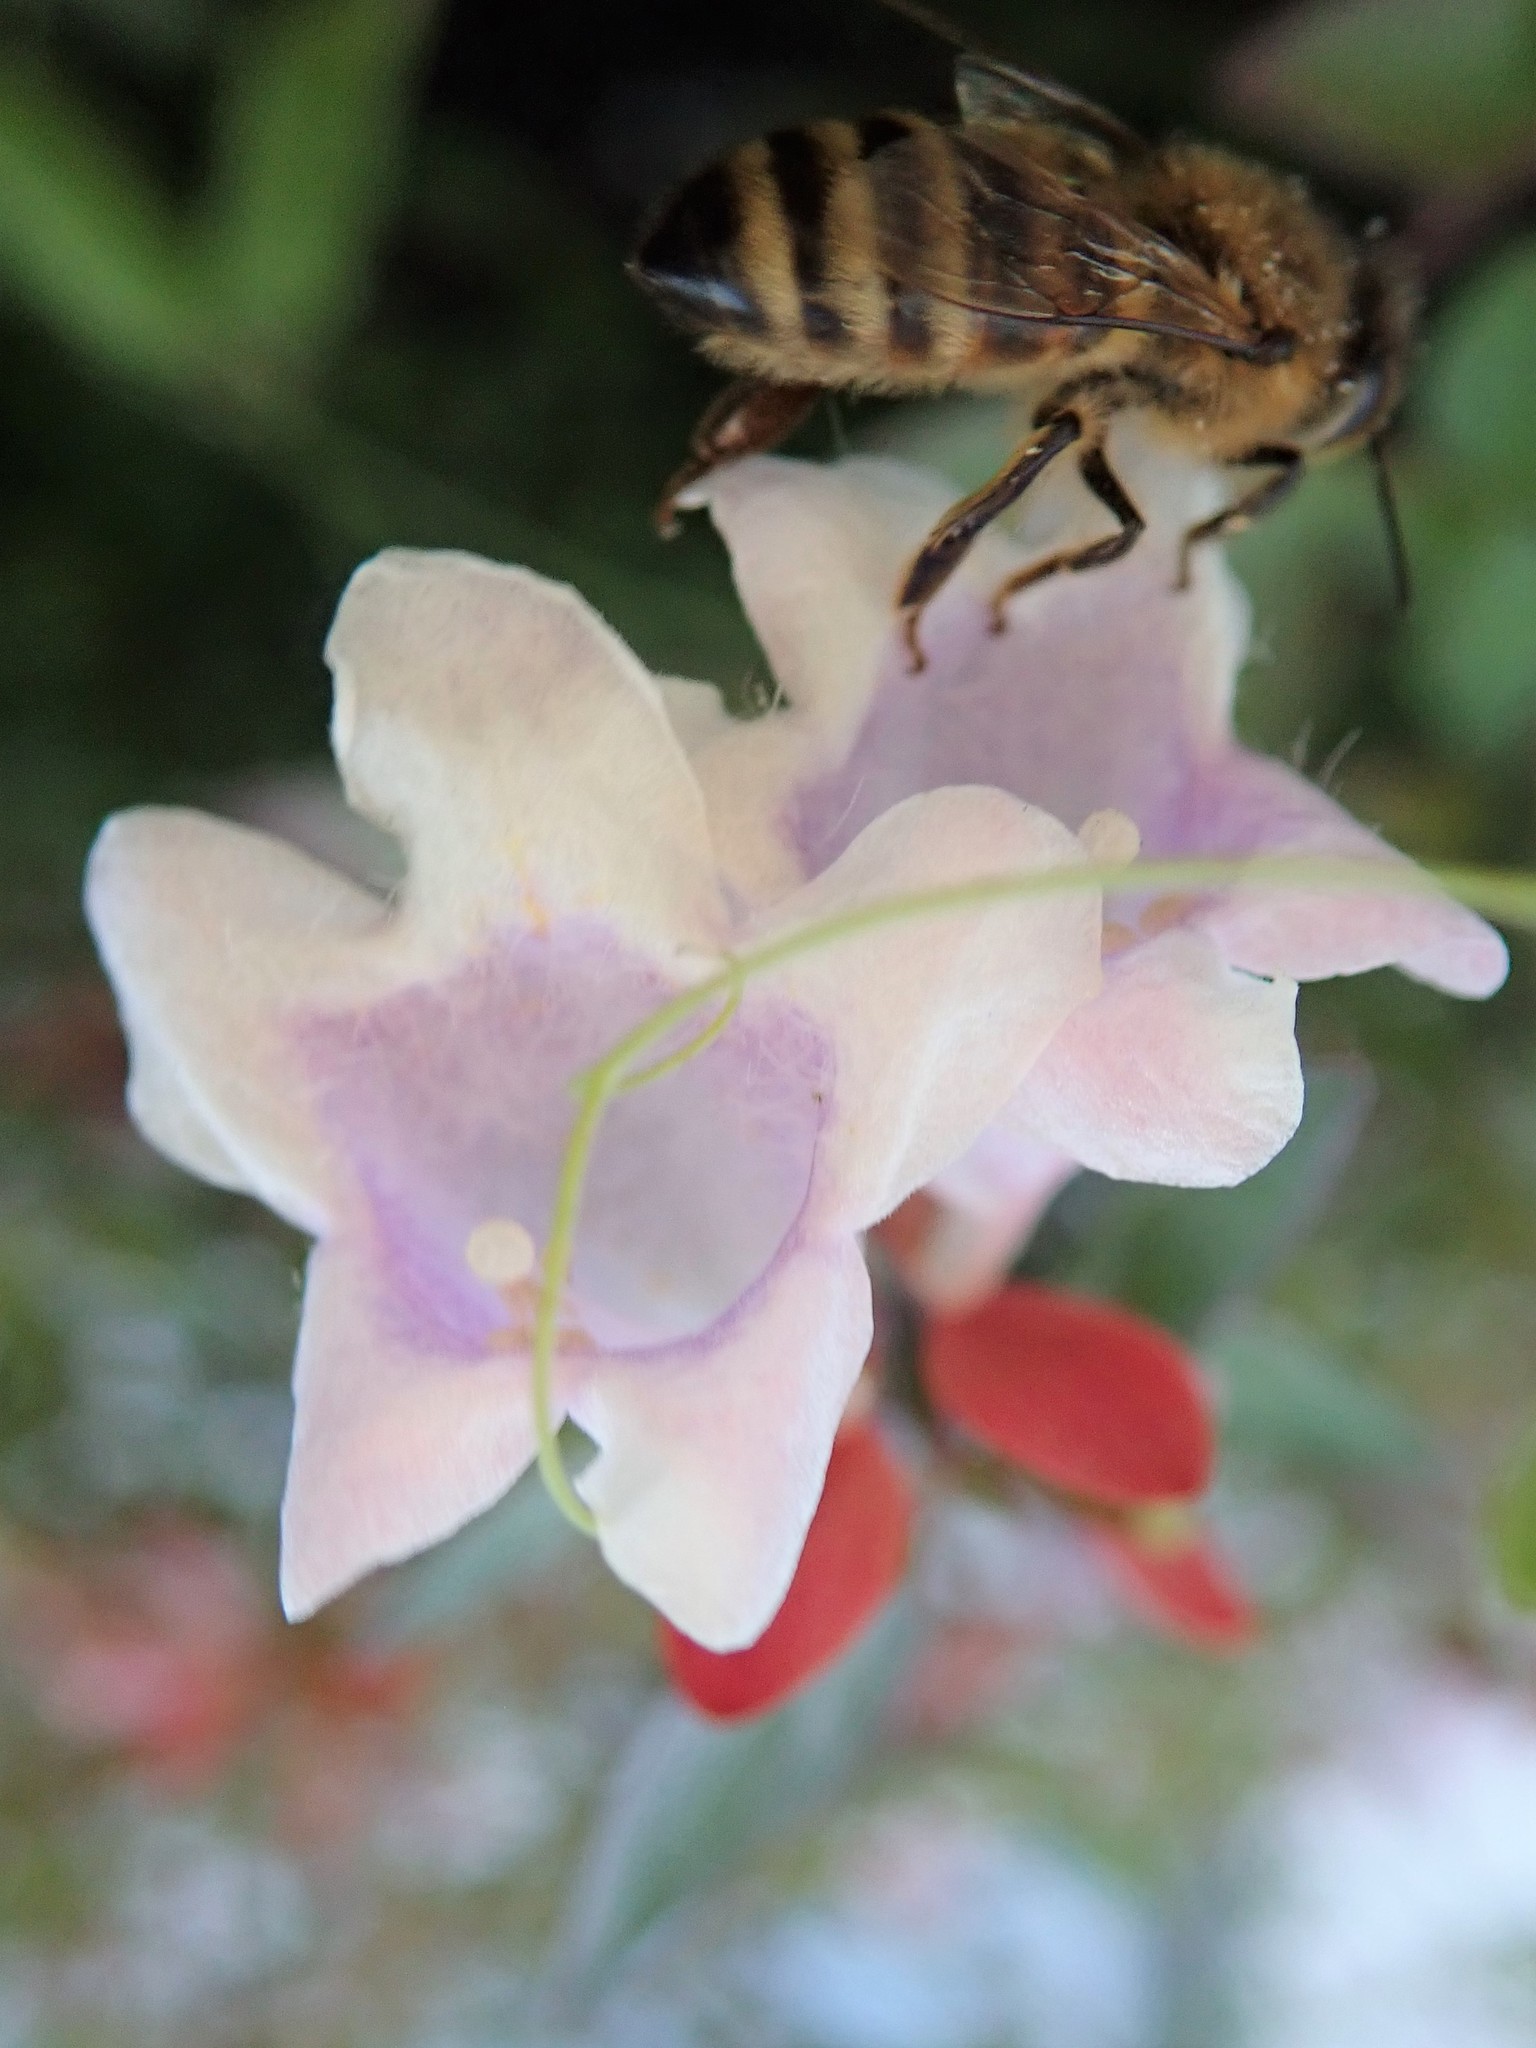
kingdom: Animalia
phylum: Arthropoda
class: Insecta
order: Hymenoptera
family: Apidae
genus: Apis
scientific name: Apis mellifera
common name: Honey bee
